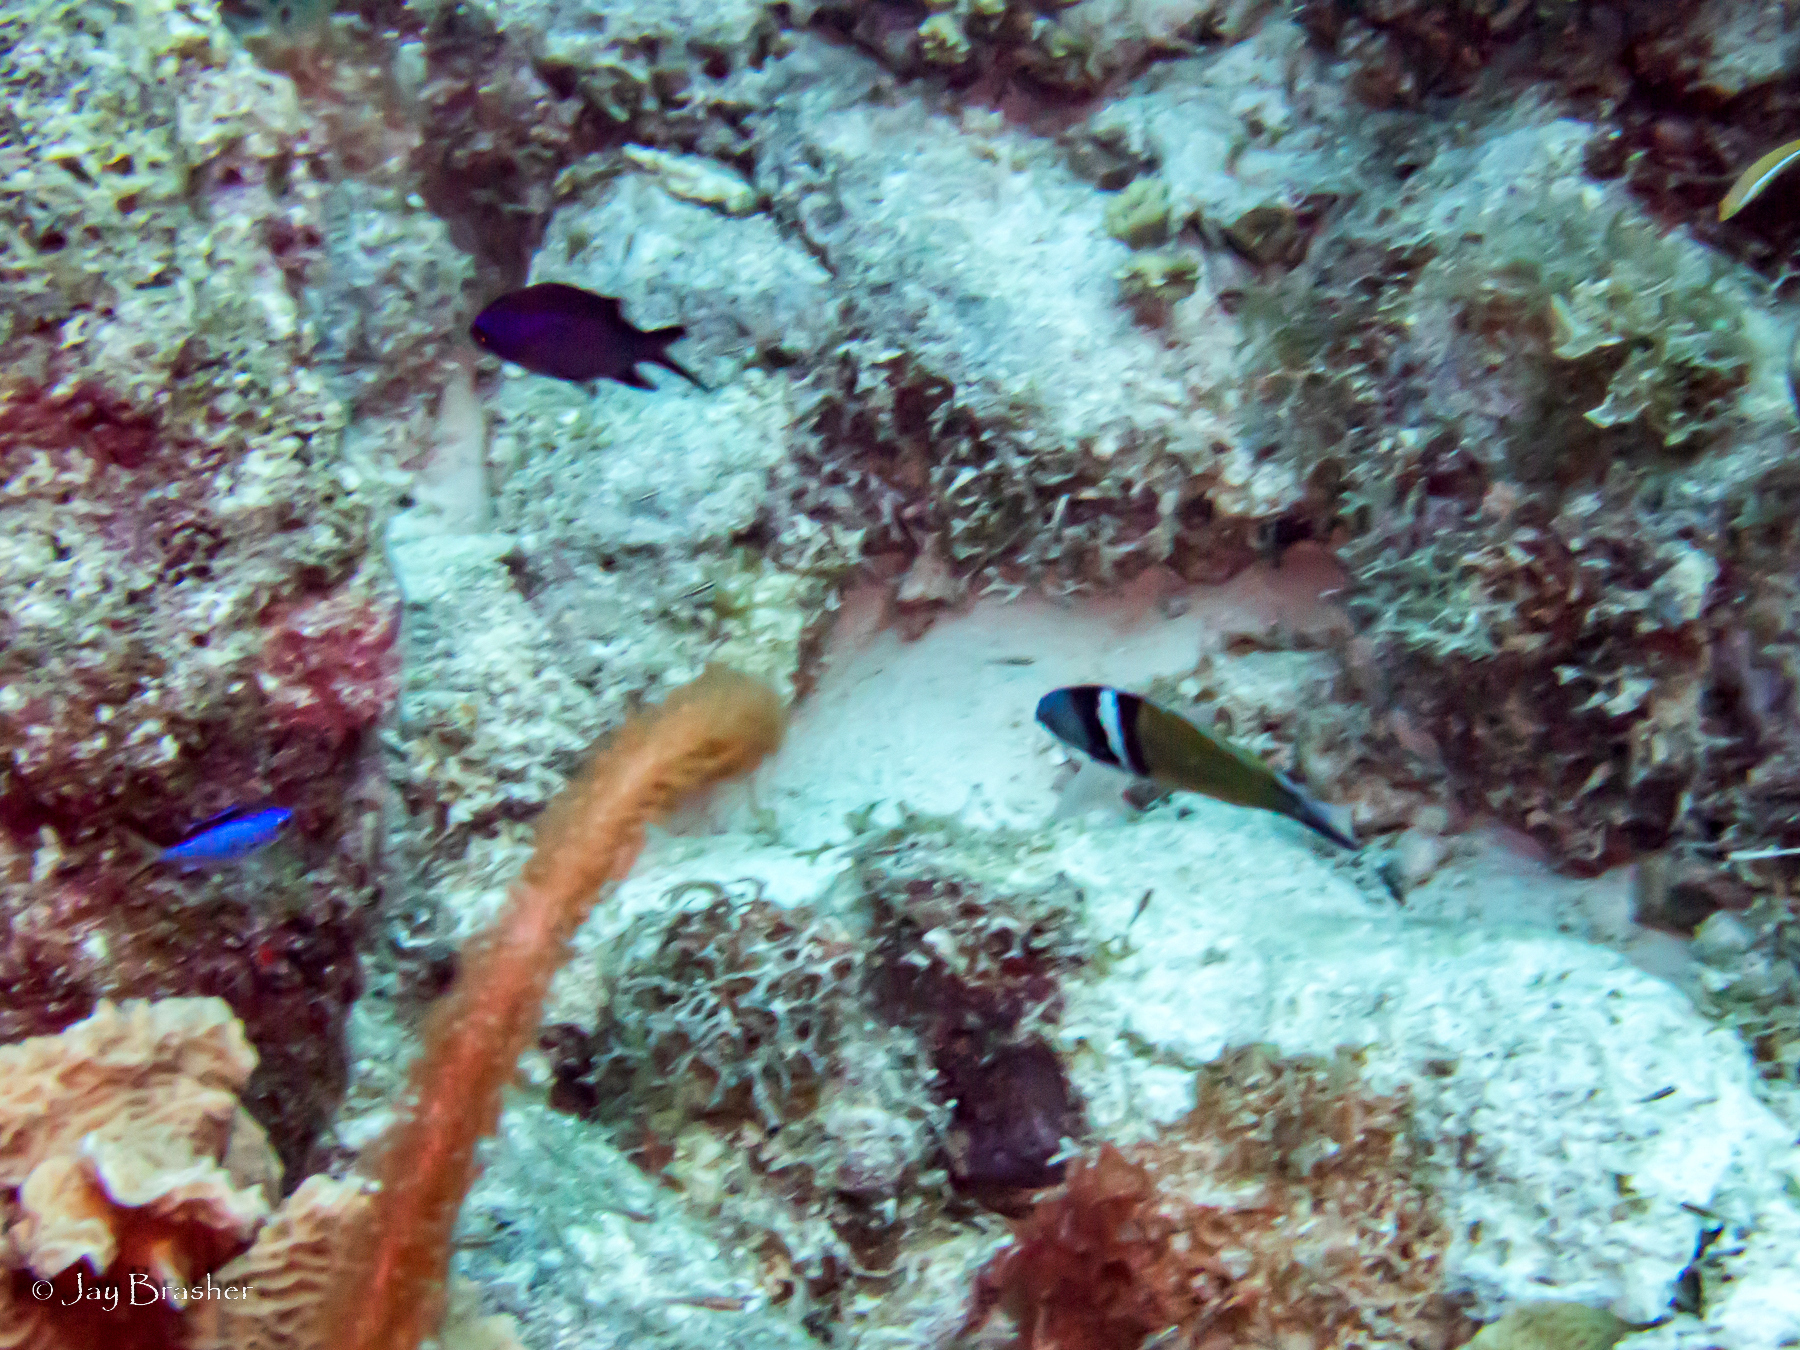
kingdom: Animalia
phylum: Chordata
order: Perciformes
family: Labridae
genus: Thalassoma
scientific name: Thalassoma bifasciatum
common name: Bluehead wrasse
